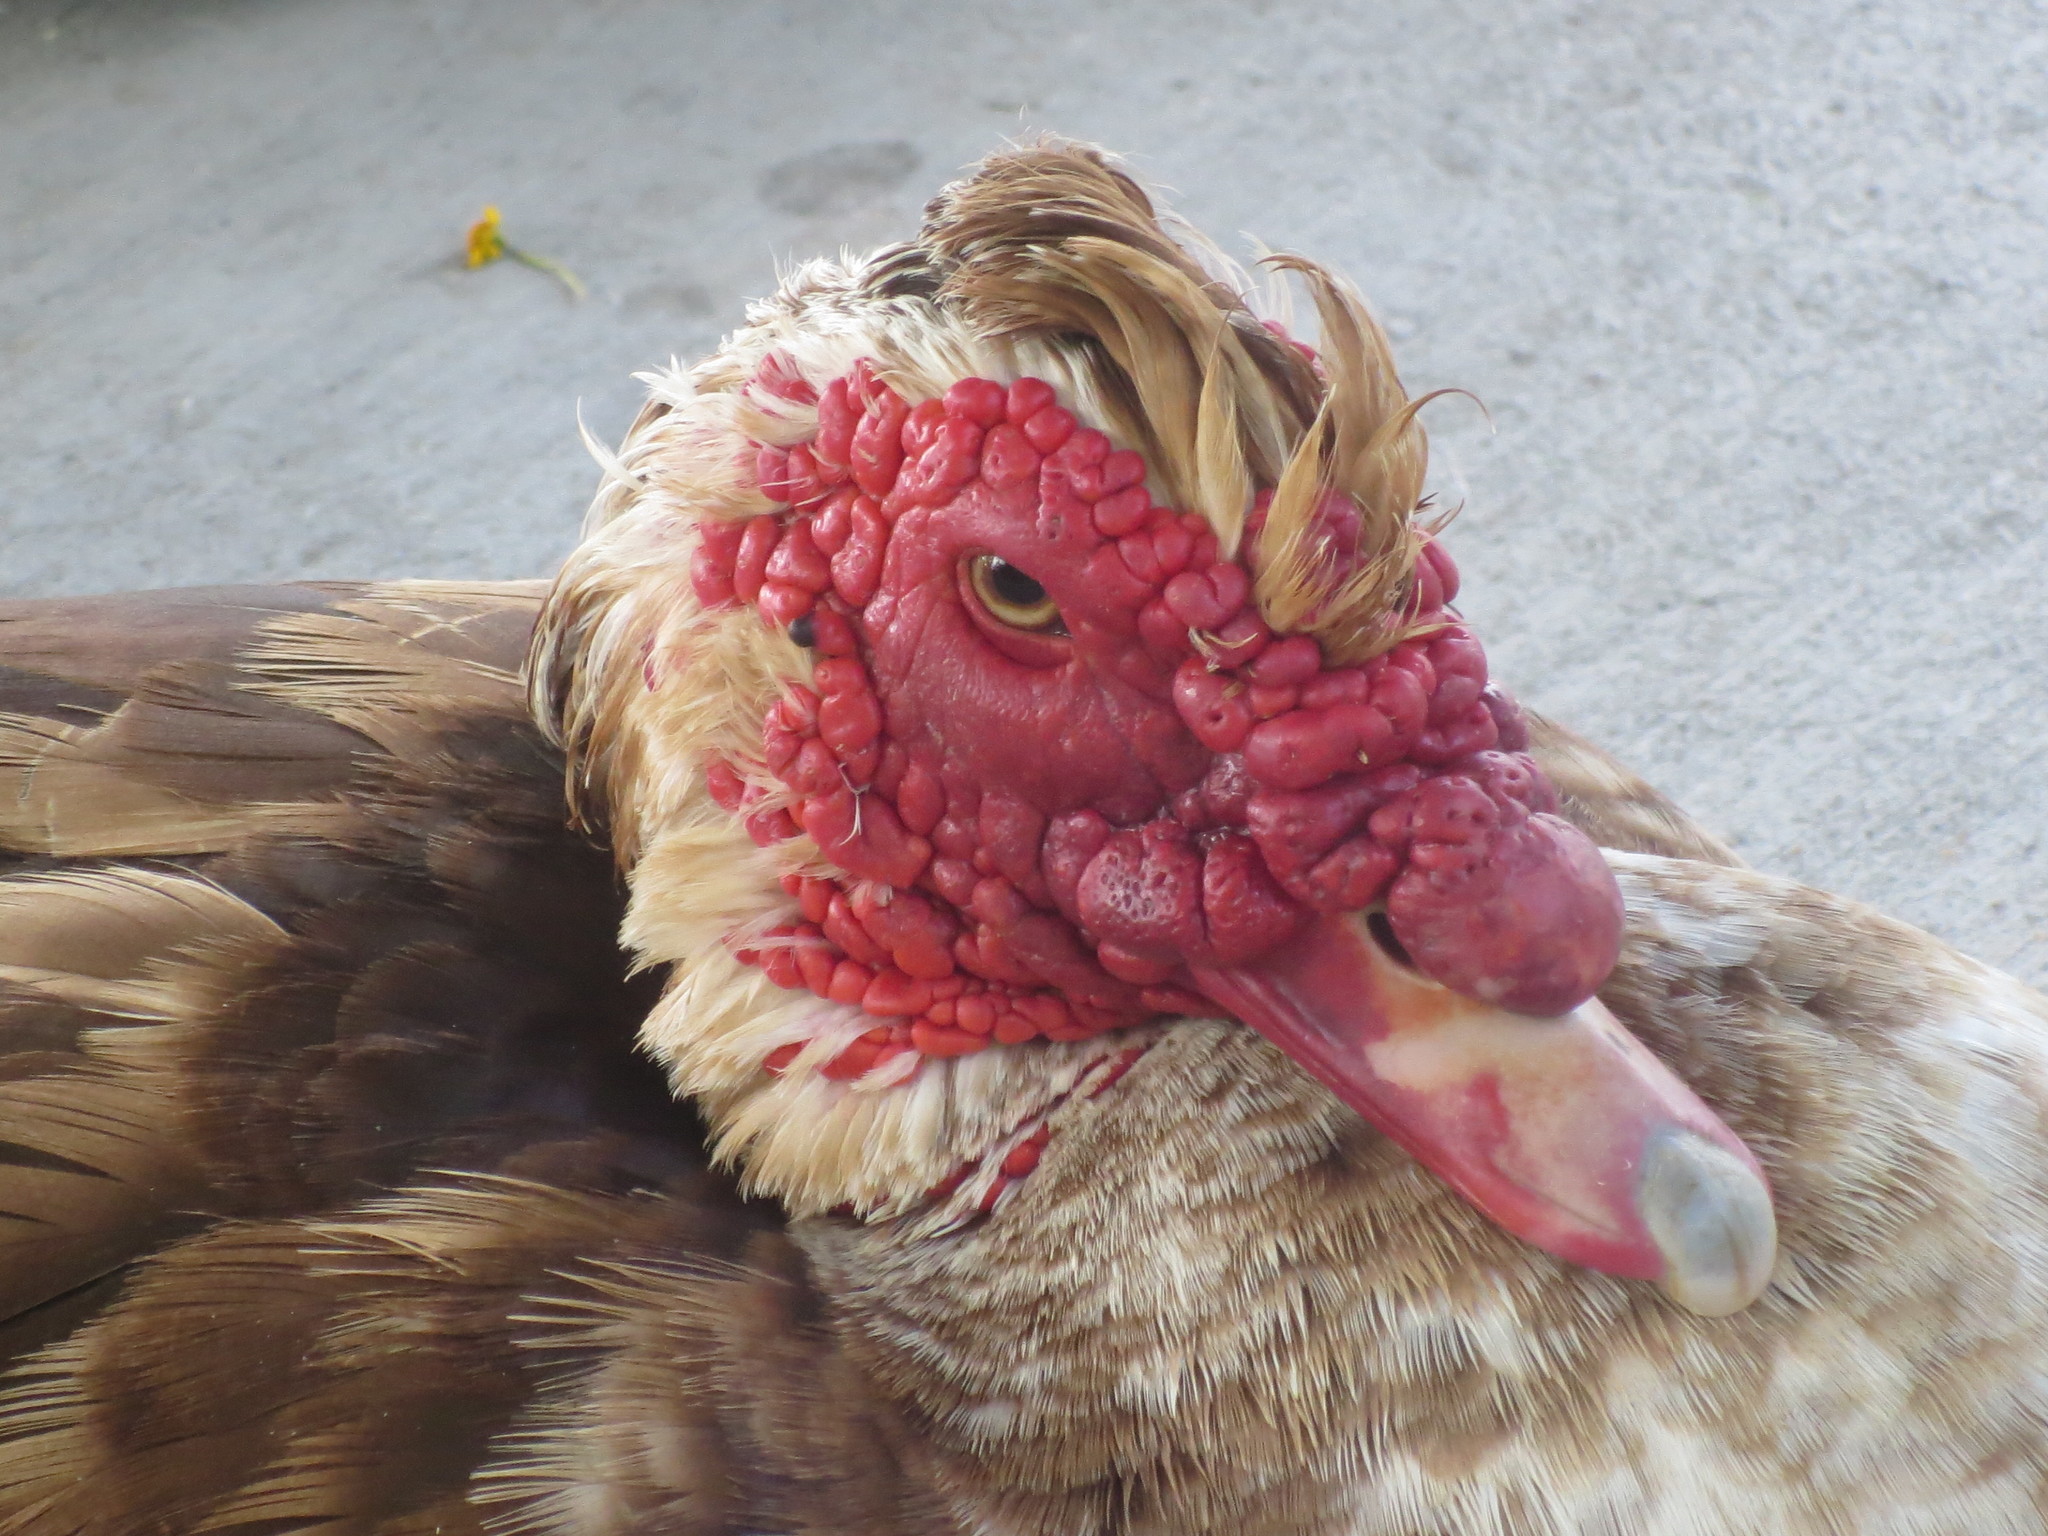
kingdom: Animalia
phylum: Chordata
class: Aves
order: Anseriformes
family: Anatidae
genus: Cairina
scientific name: Cairina moschata
